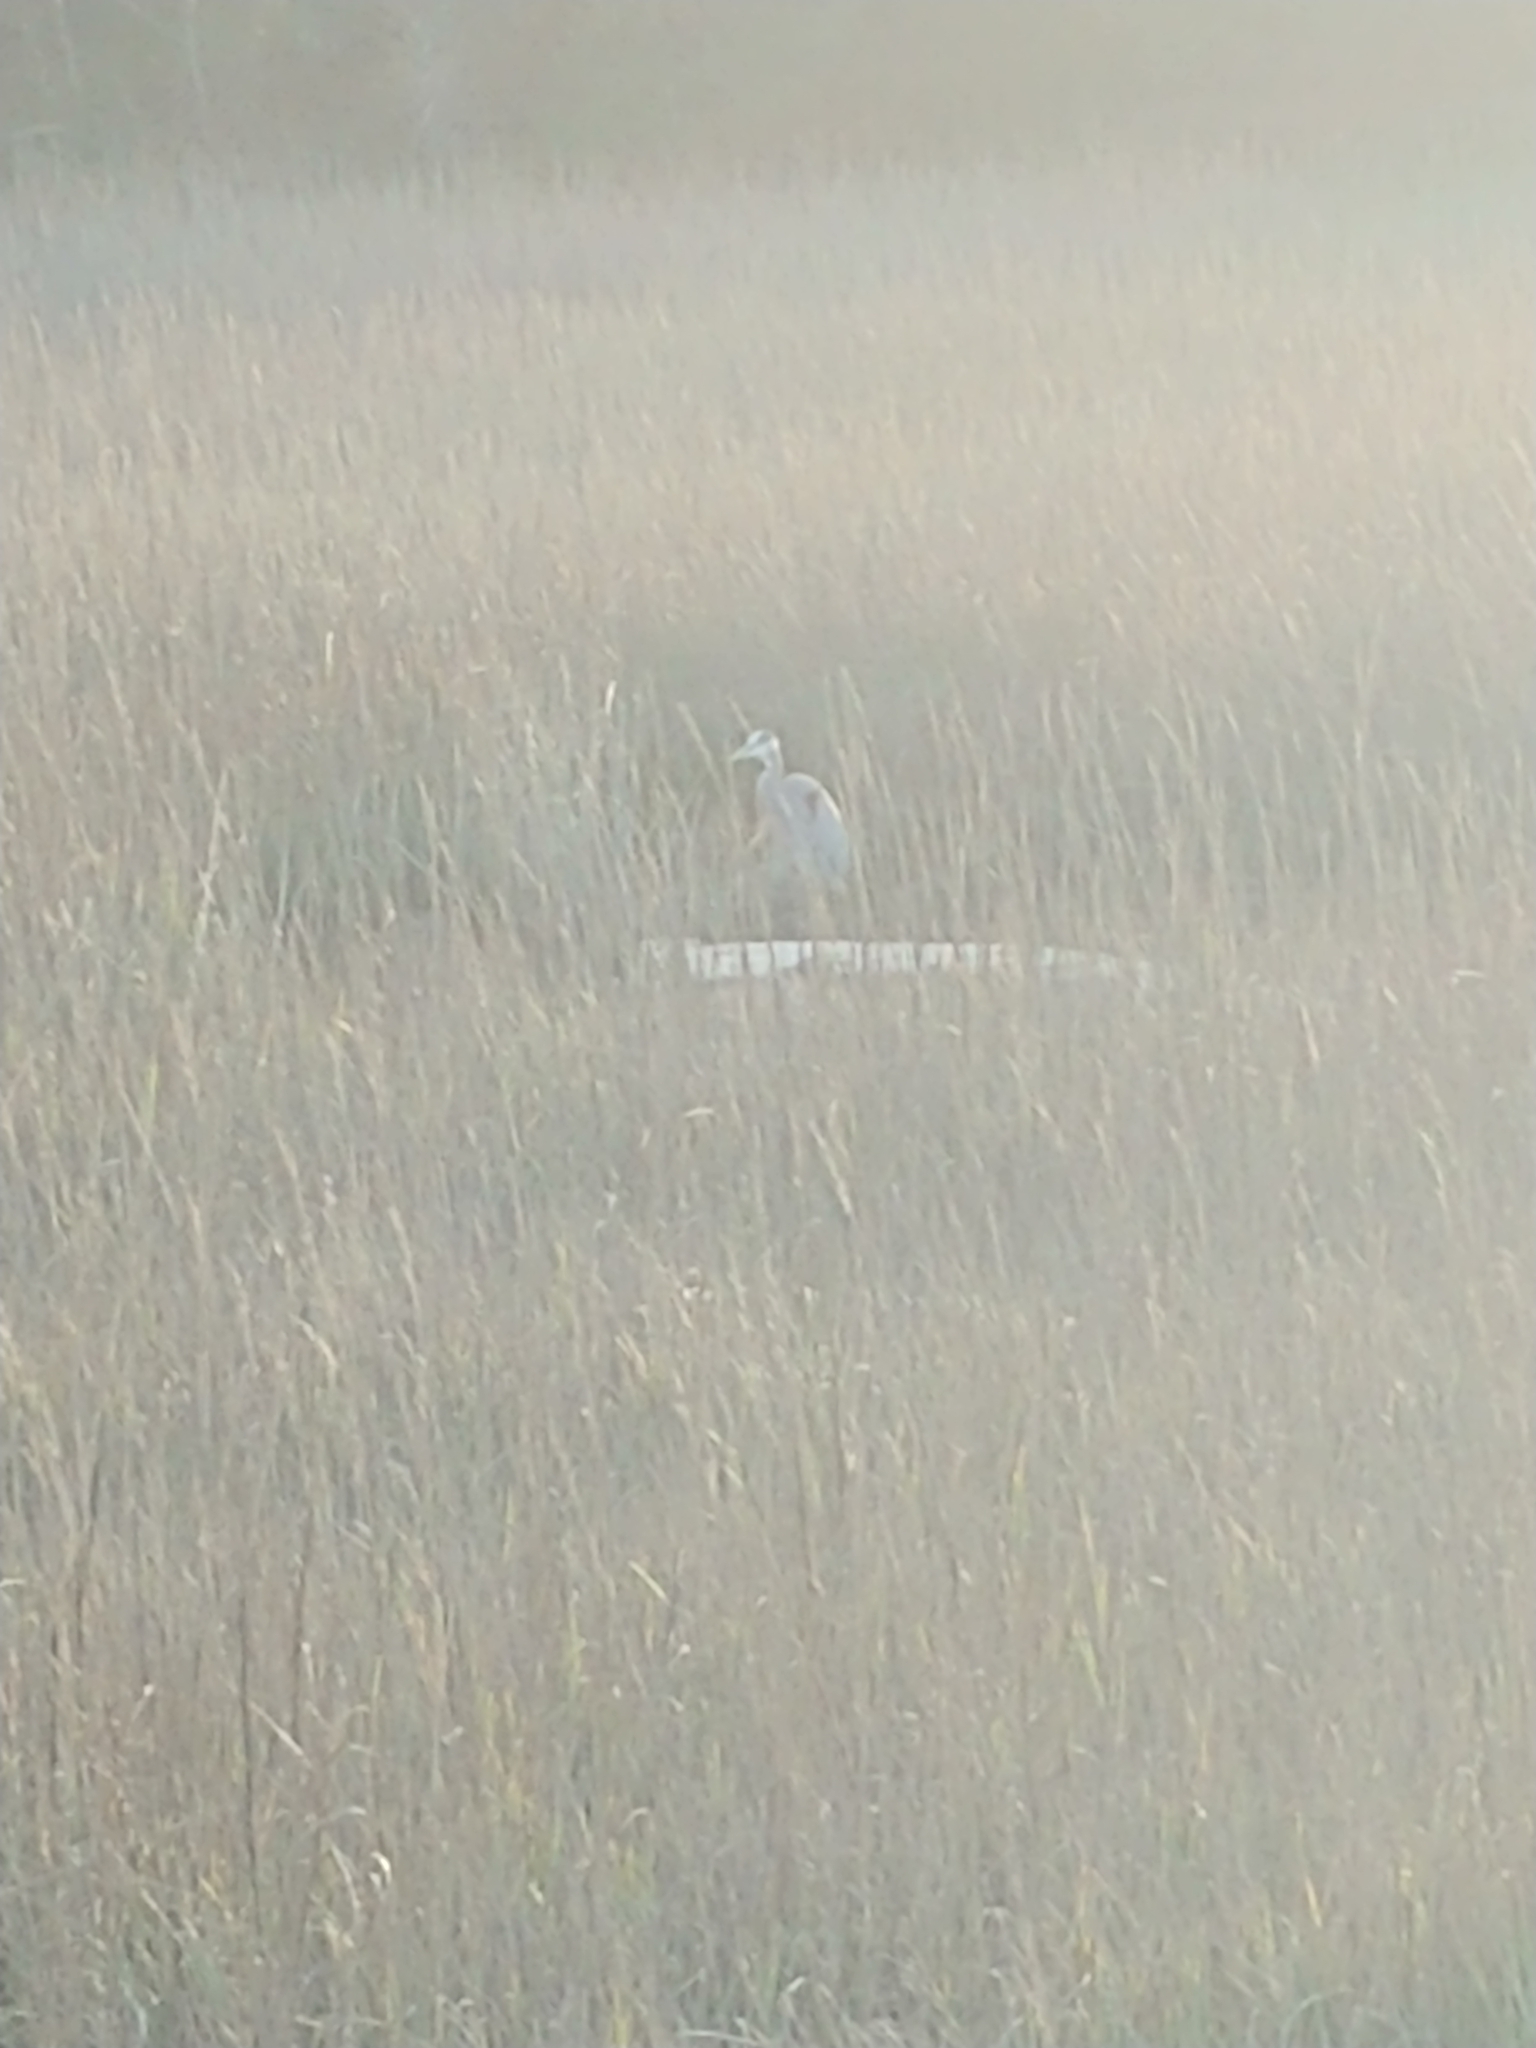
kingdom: Animalia
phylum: Chordata
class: Aves
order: Pelecaniformes
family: Ardeidae
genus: Ardea
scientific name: Ardea herodias
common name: Great blue heron
